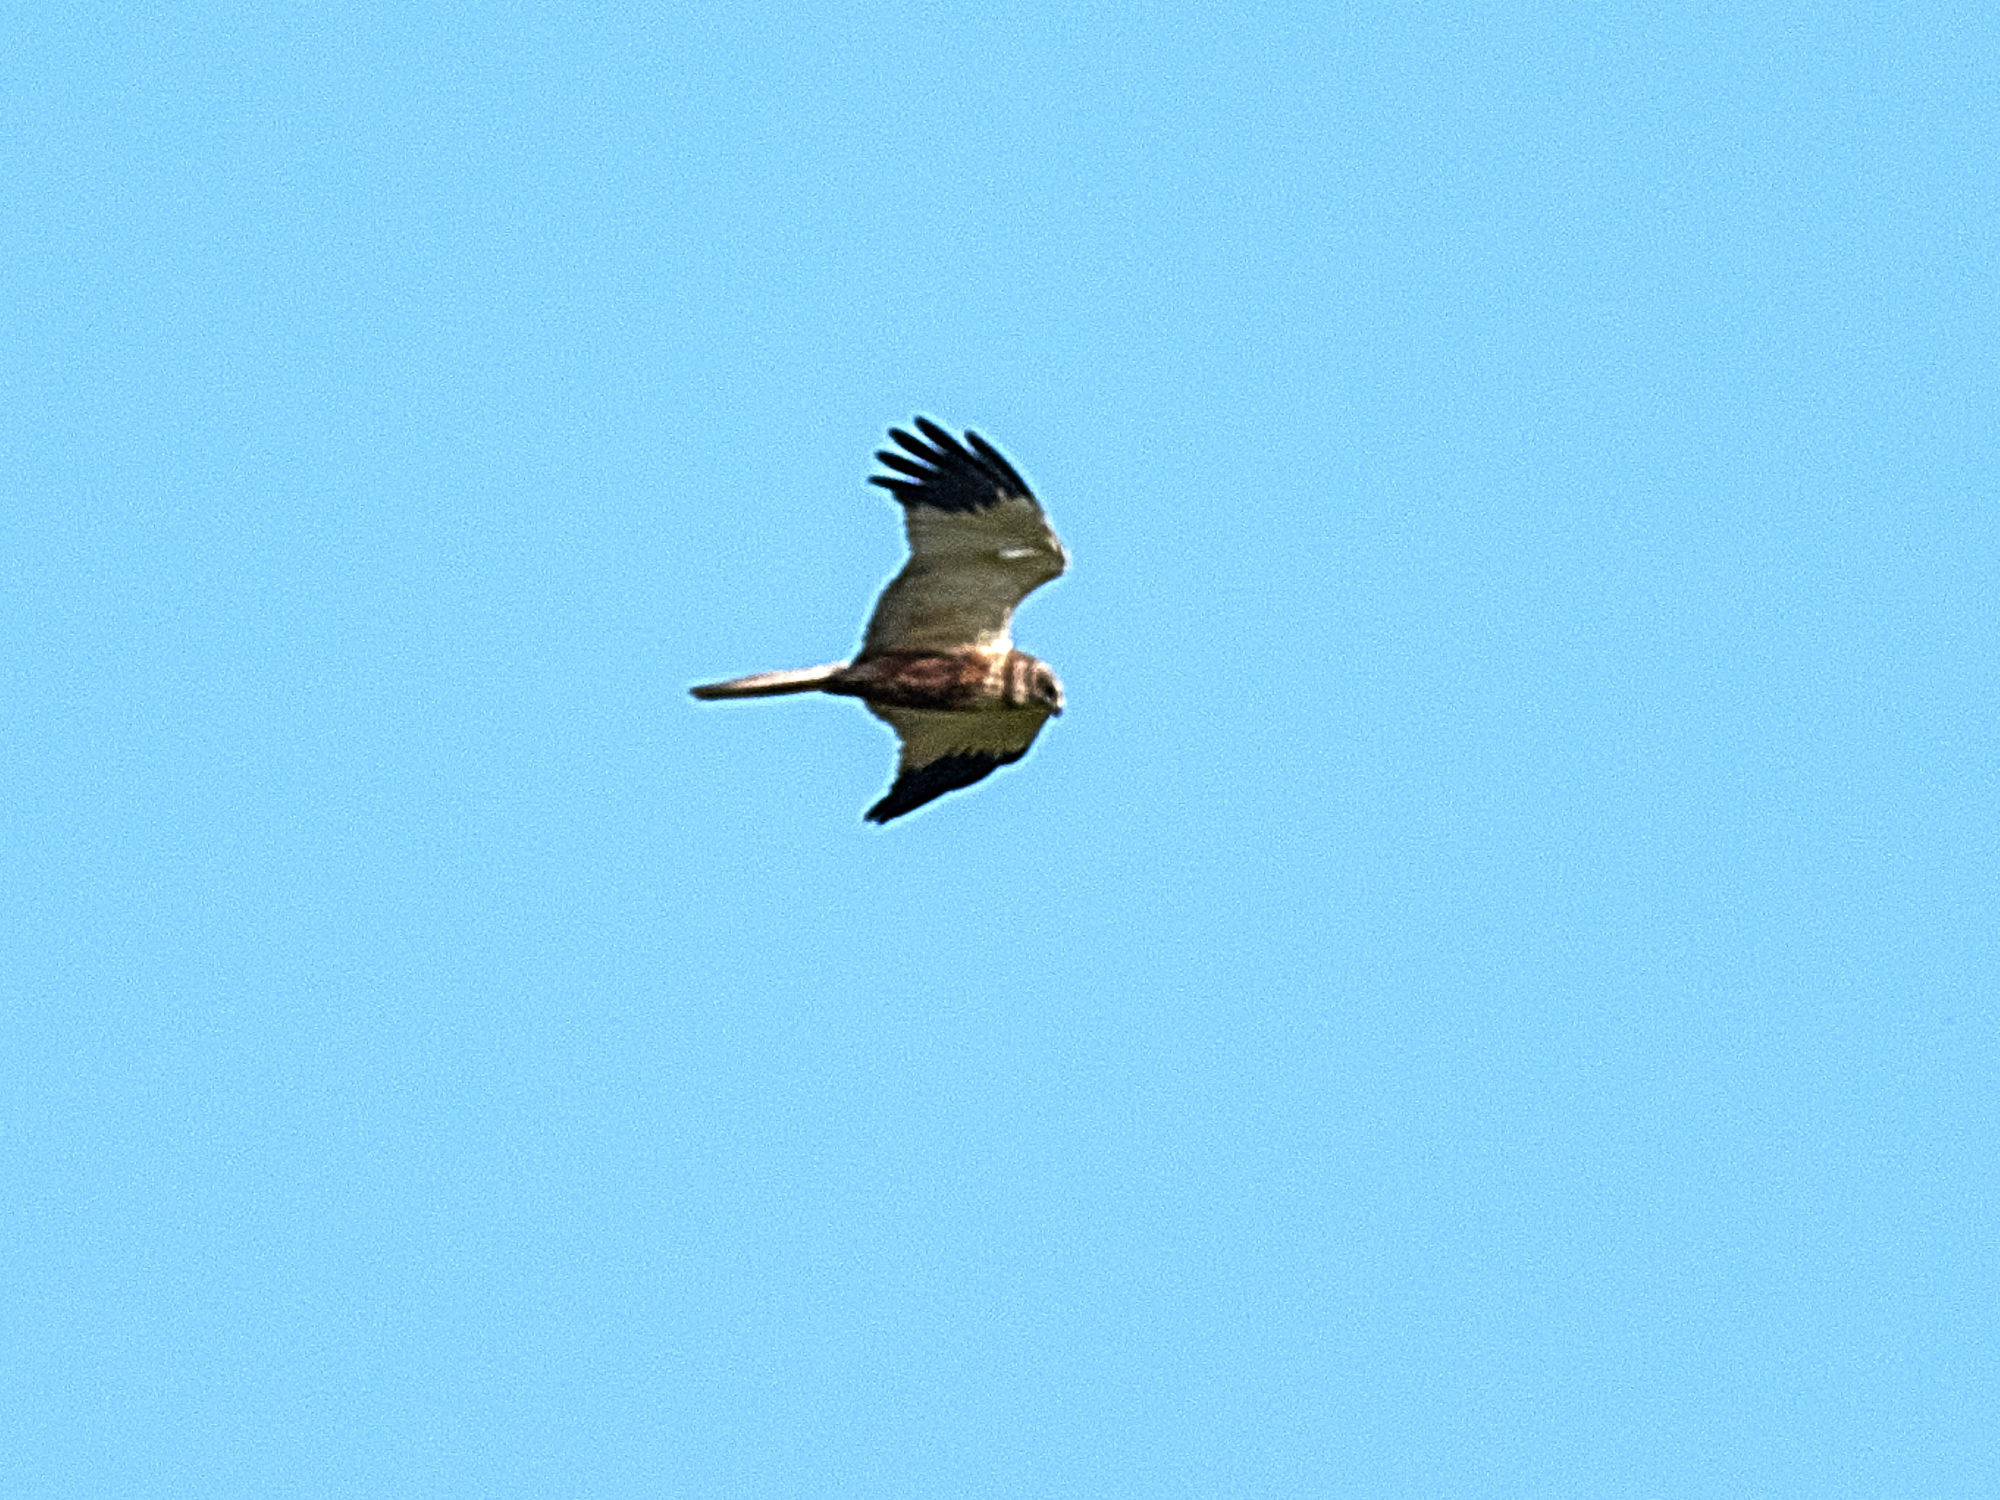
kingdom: Animalia
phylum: Chordata
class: Aves
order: Accipitriformes
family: Accipitridae
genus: Circus
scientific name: Circus aeruginosus
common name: Western marsh harrier
